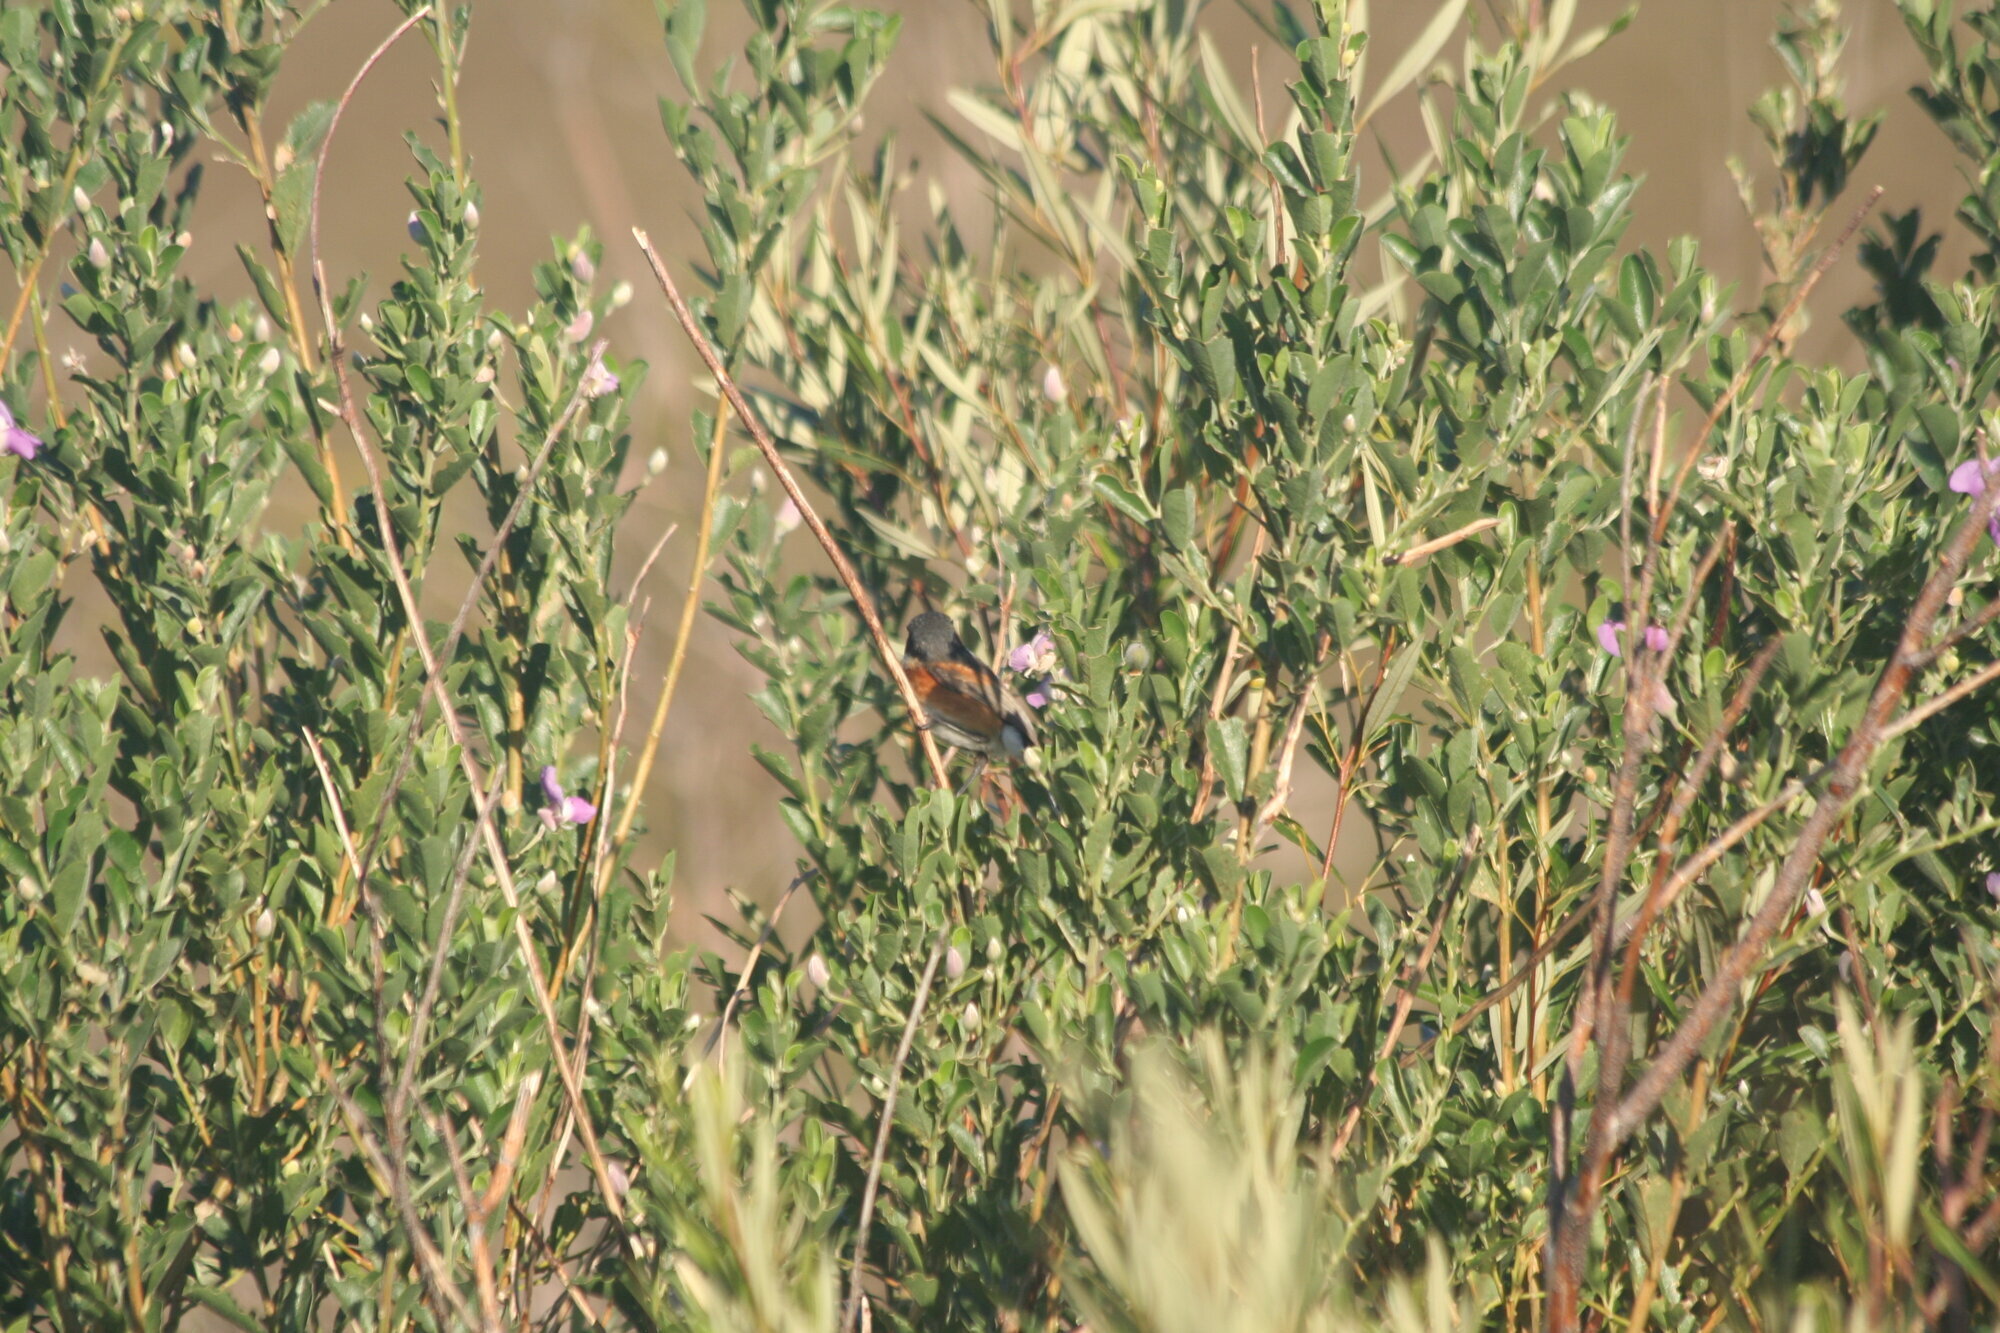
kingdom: Animalia
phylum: Chordata
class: Aves
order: Passeriformes
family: Platysteiridae
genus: Batis
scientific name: Batis capensis
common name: Cape batis
